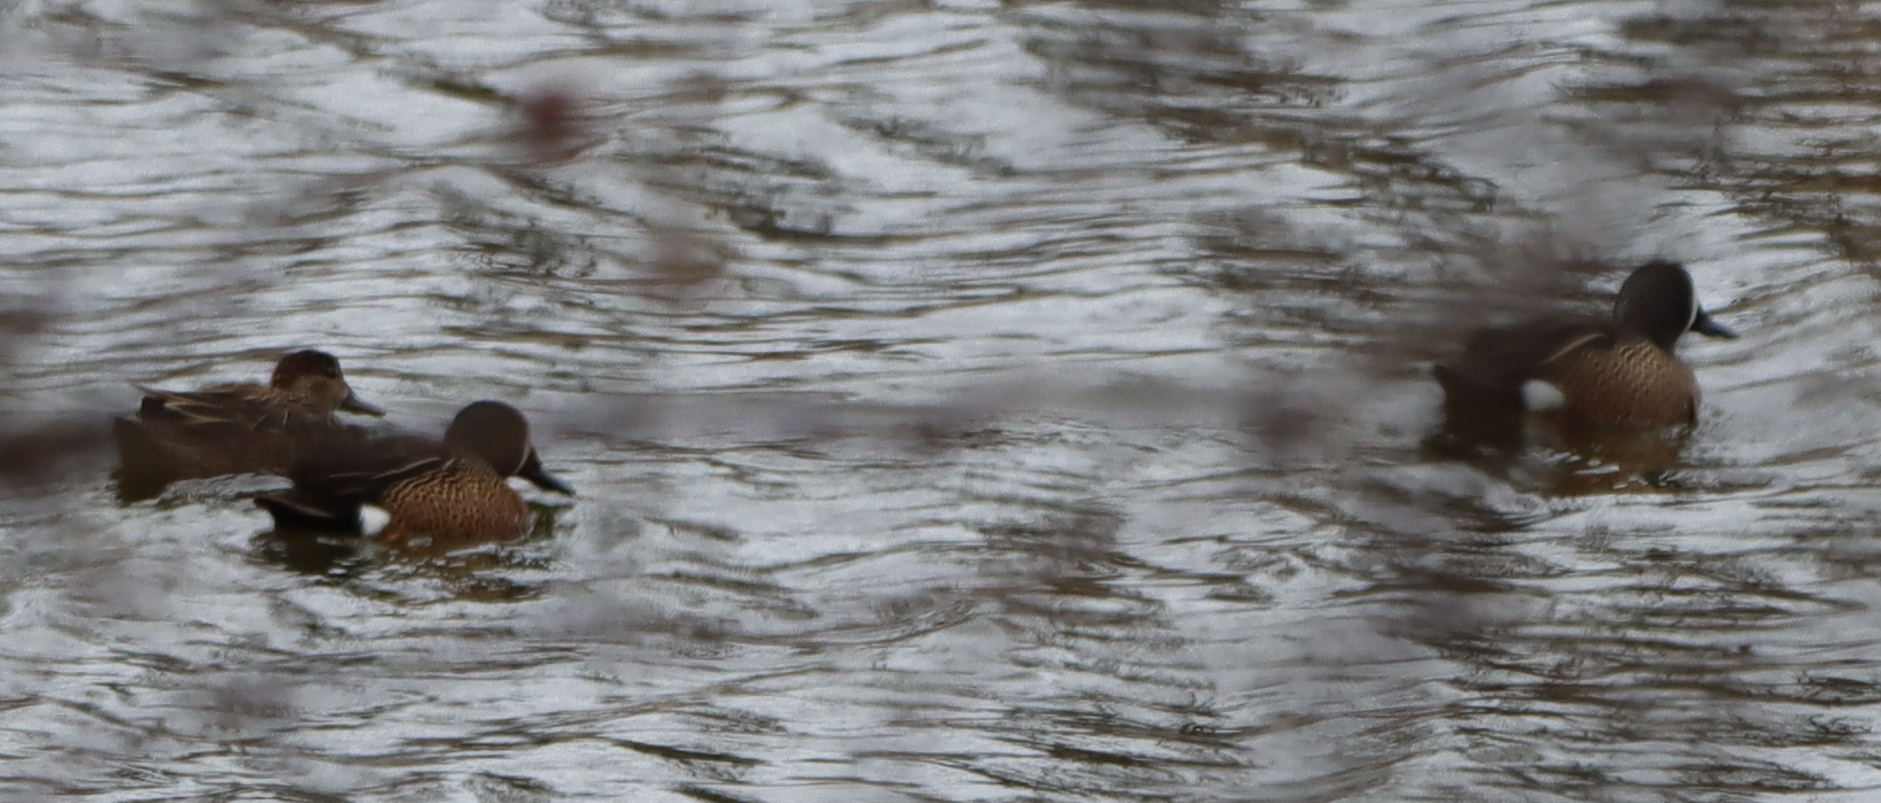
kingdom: Animalia
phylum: Chordata
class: Aves
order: Anseriformes
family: Anatidae
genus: Spatula
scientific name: Spatula discors
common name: Blue-winged teal
